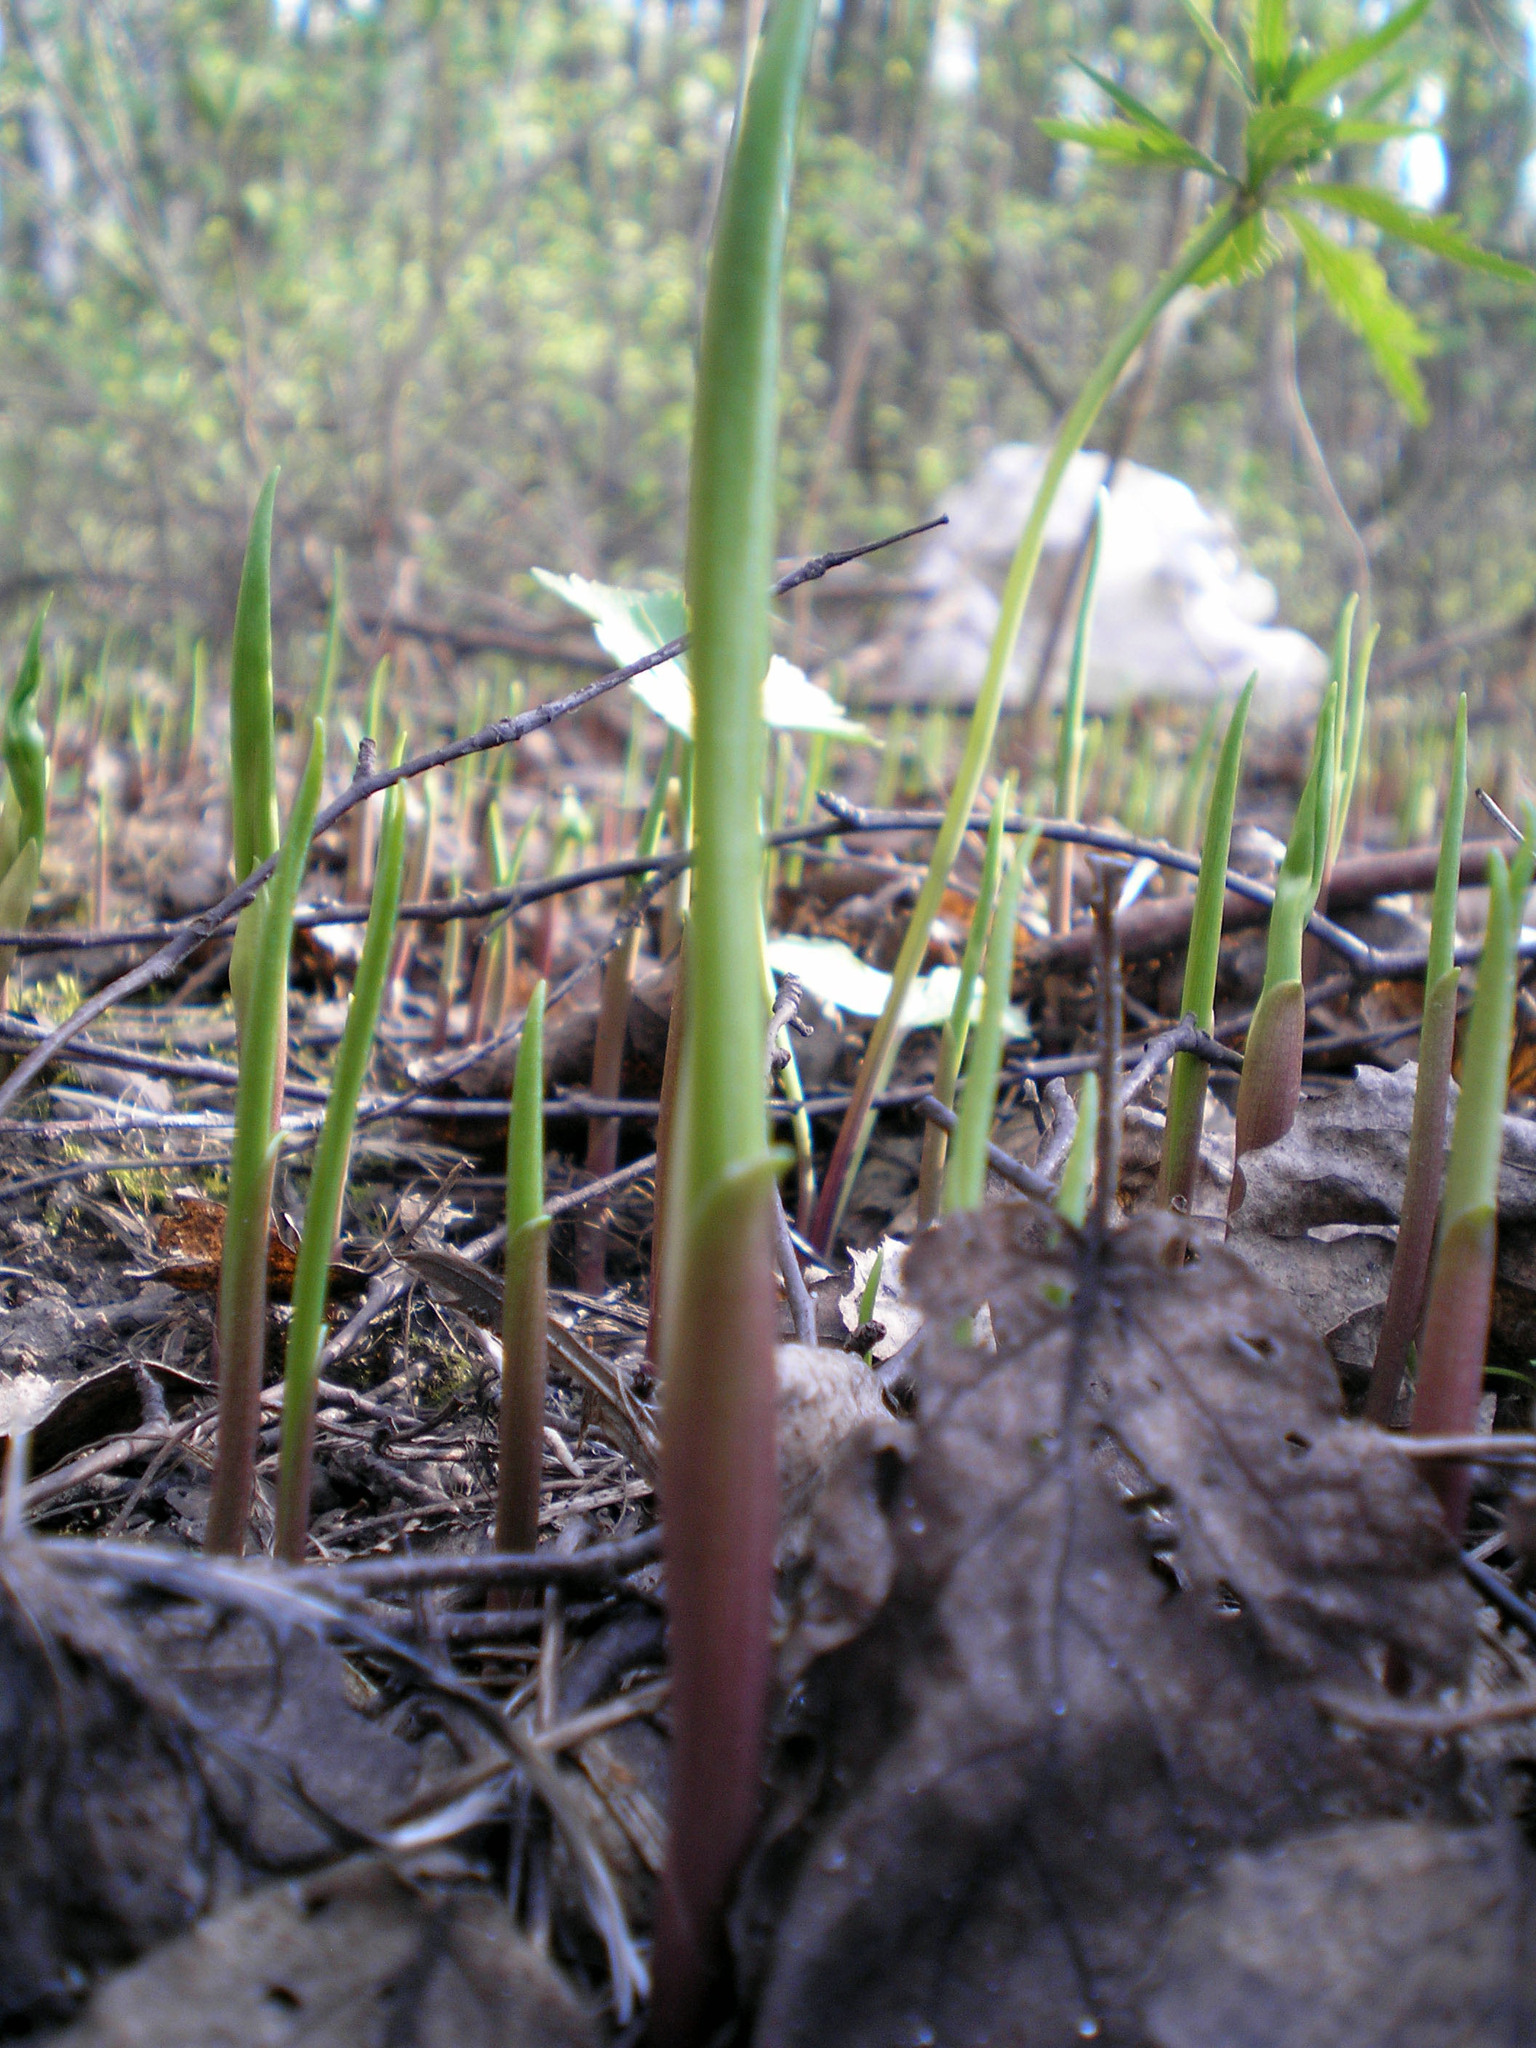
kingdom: Plantae
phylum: Tracheophyta
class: Liliopsida
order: Asparagales
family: Asparagaceae
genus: Convallaria
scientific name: Convallaria majalis
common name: Lily-of-the-valley
